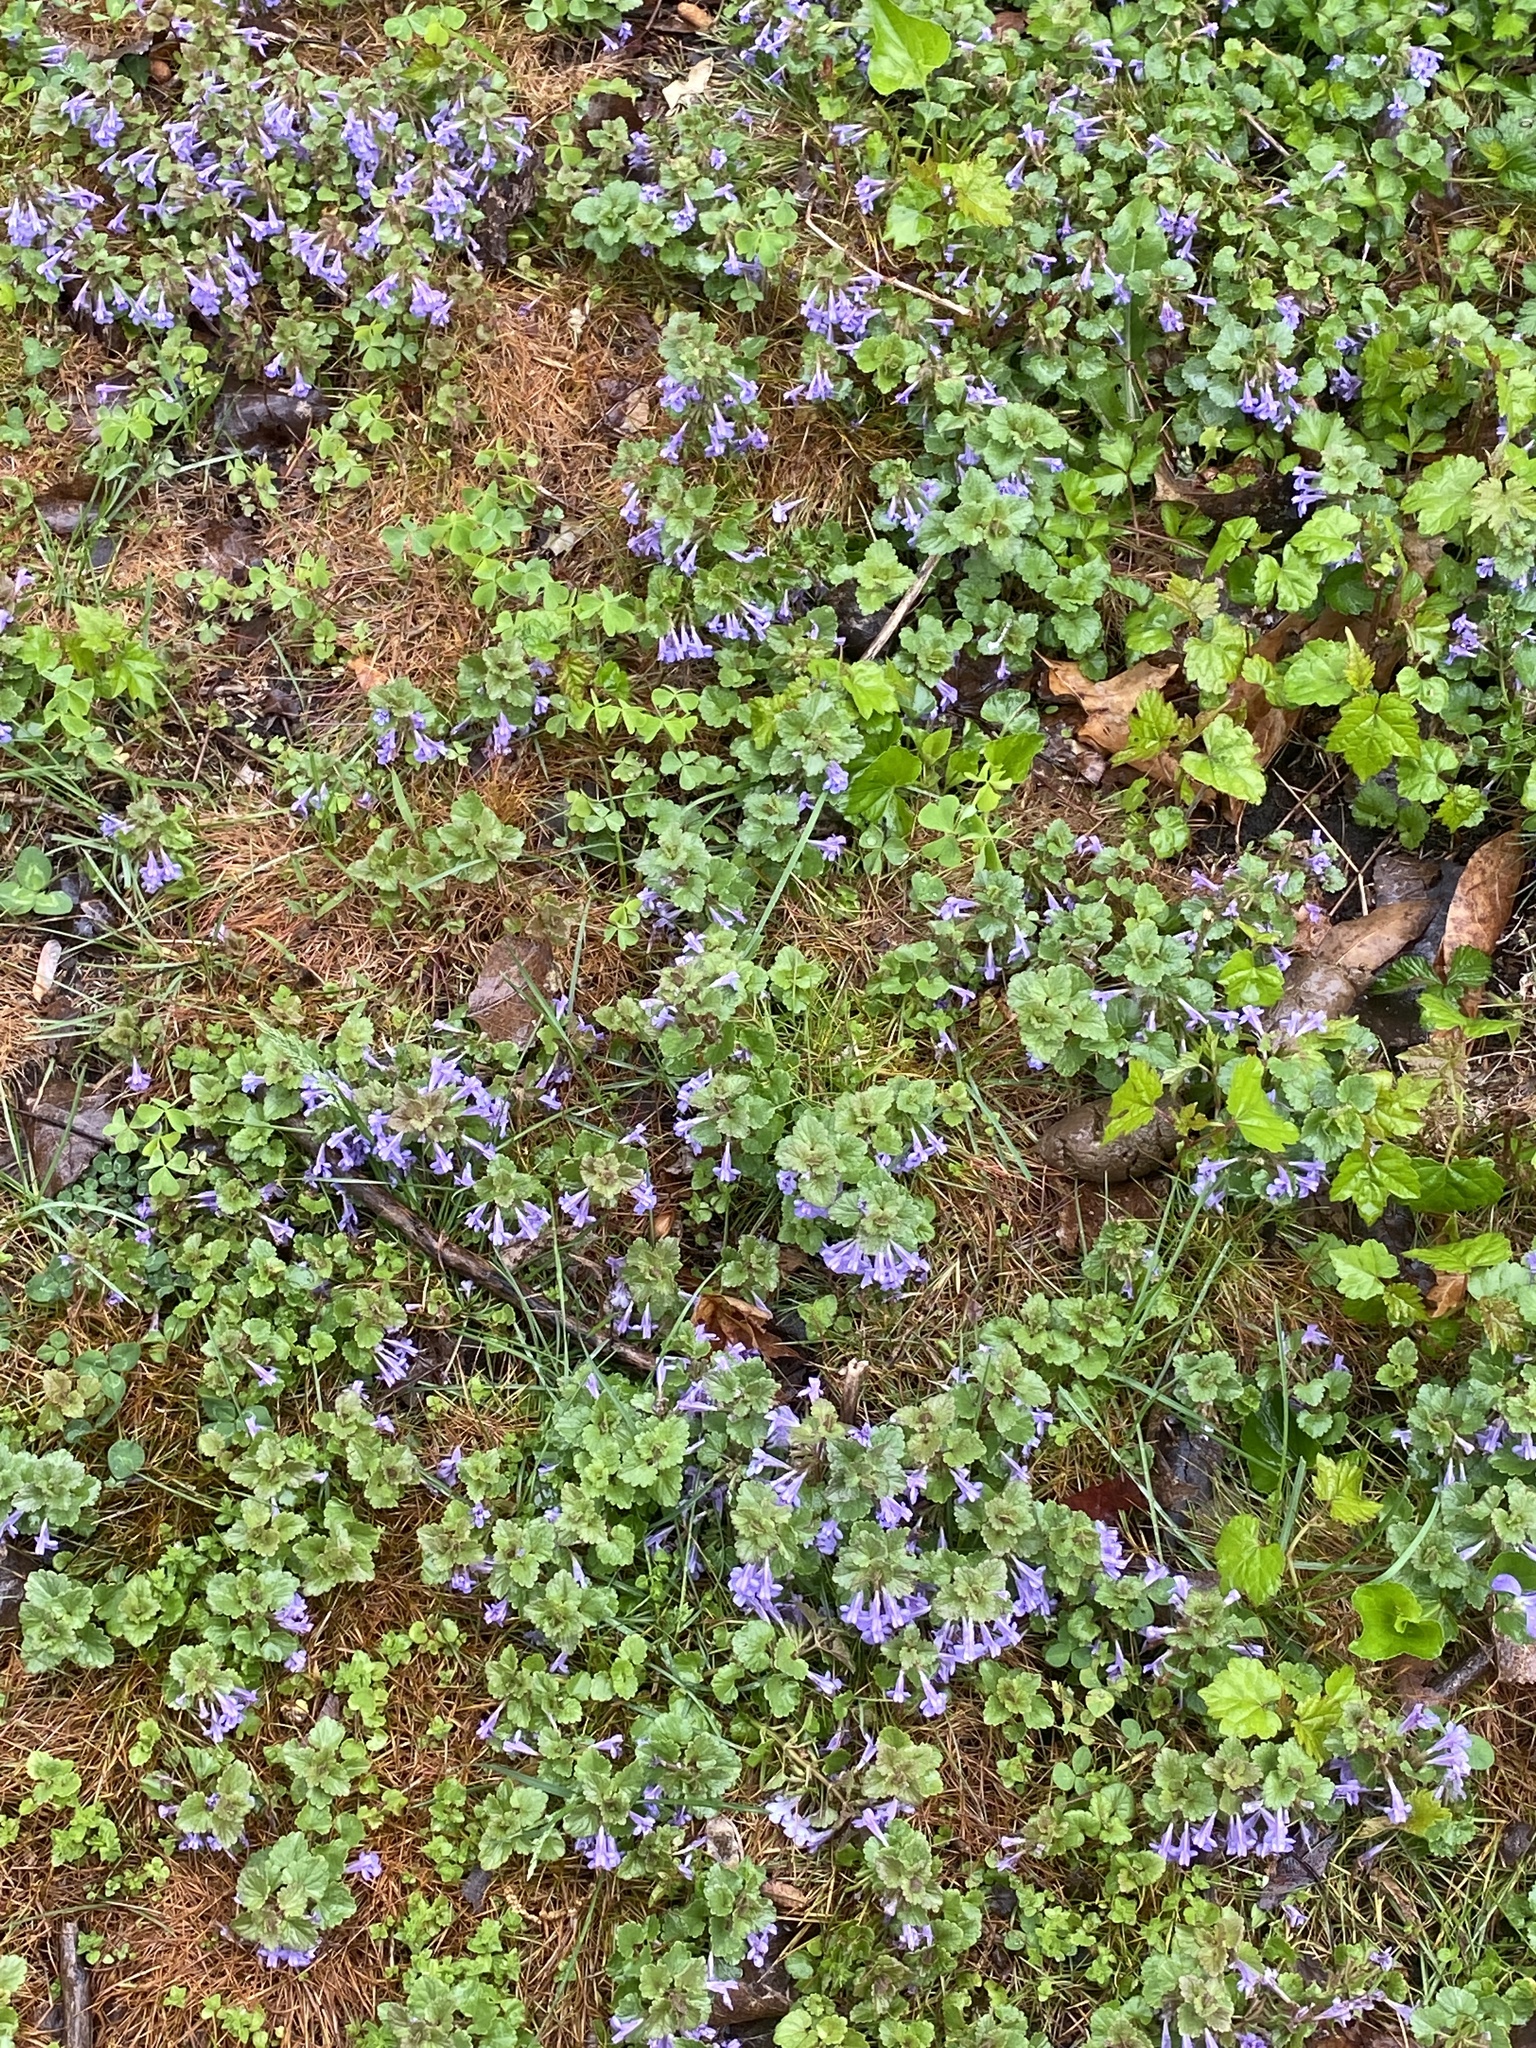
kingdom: Plantae
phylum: Tracheophyta
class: Magnoliopsida
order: Lamiales
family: Lamiaceae
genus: Glechoma
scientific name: Glechoma hederacea
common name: Ground ivy
